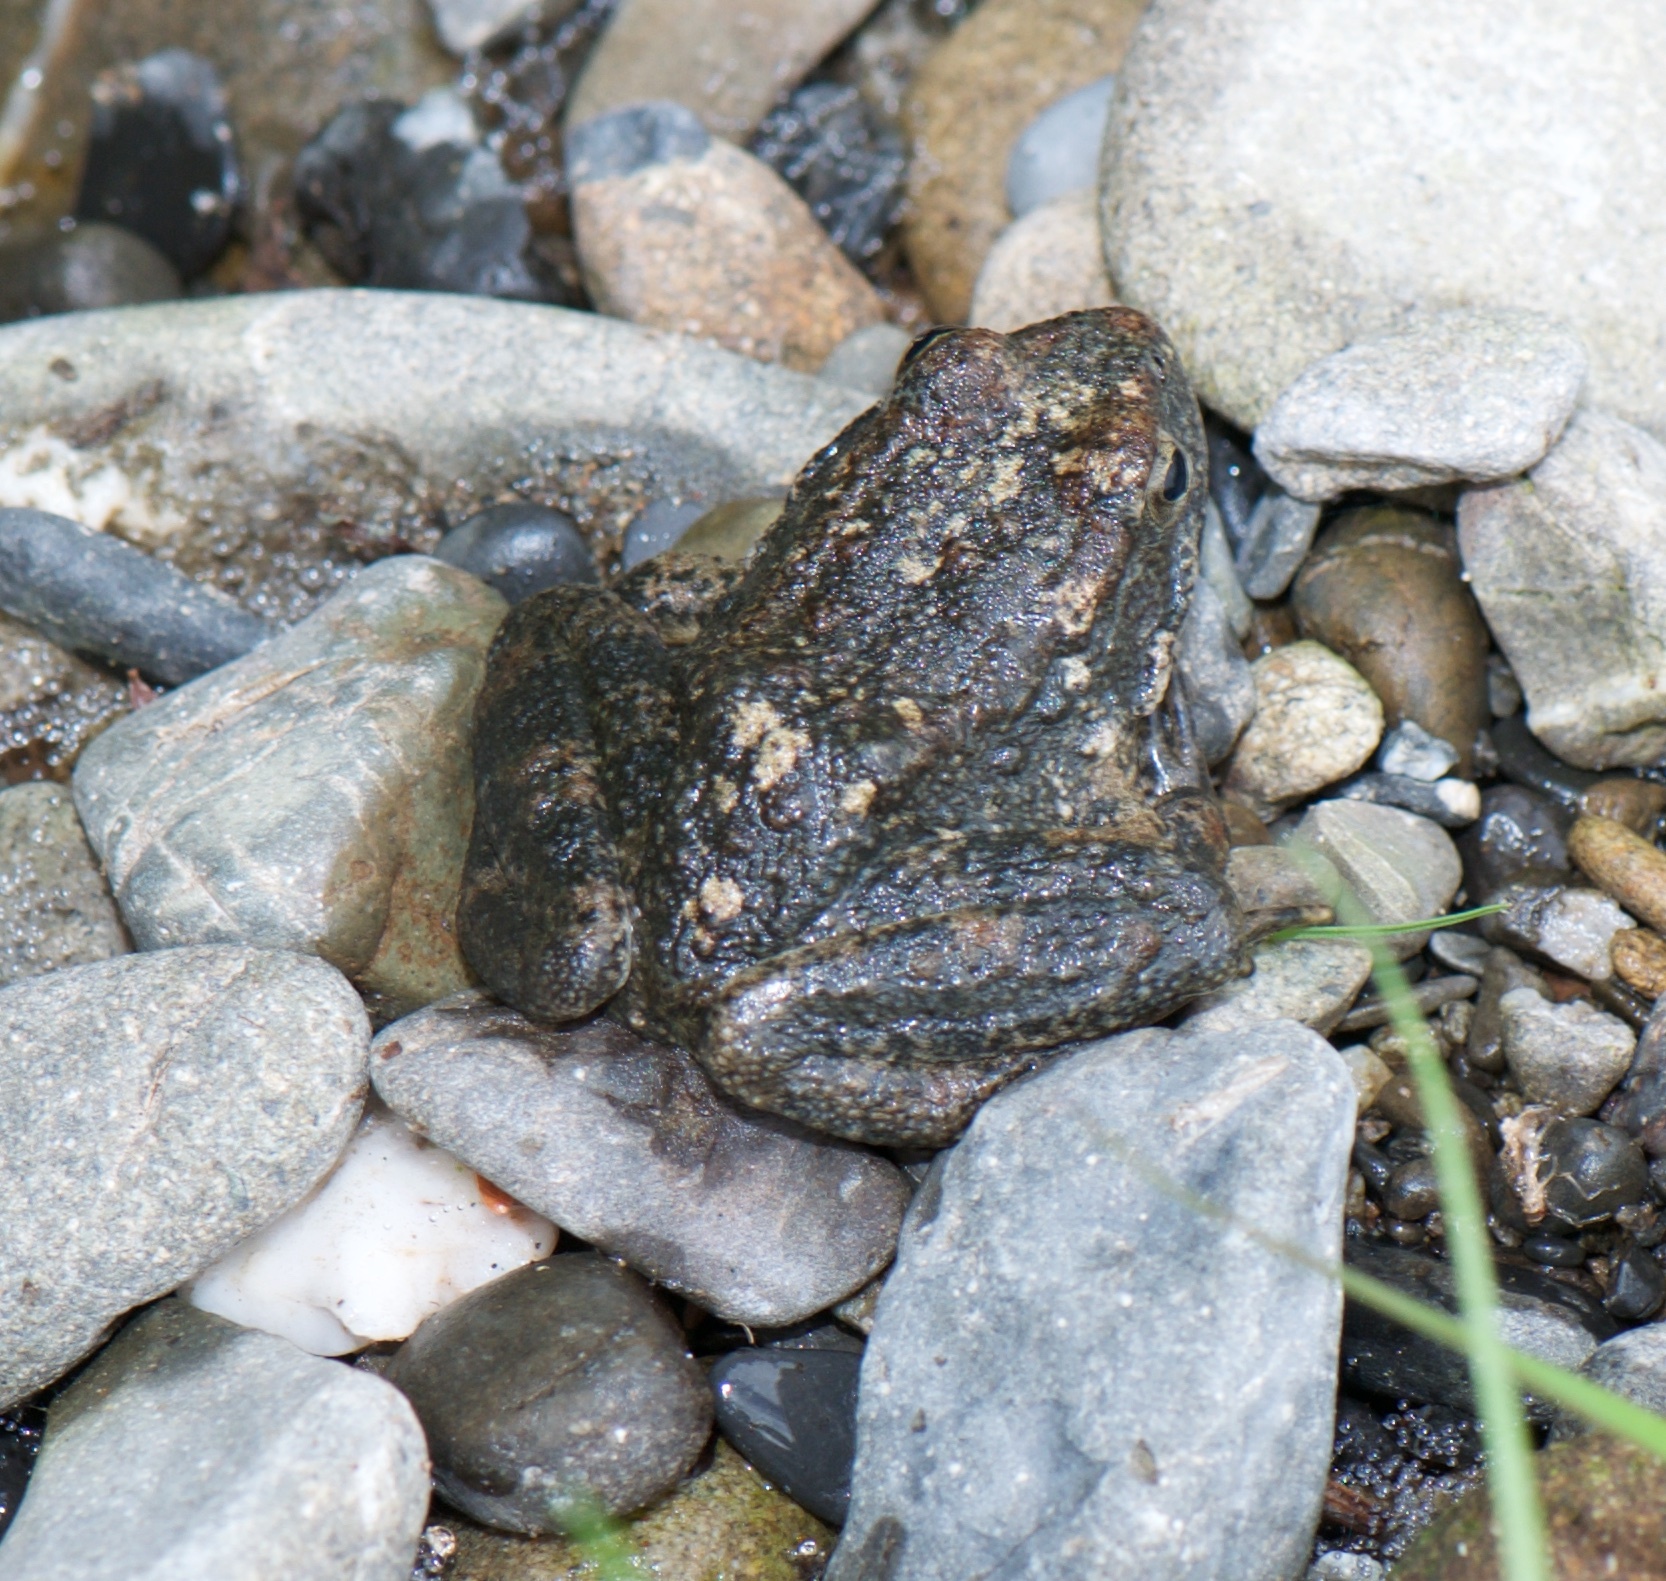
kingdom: Animalia
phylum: Chordata
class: Amphibia
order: Anura
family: Ranidae
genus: Rana
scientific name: Rana boylii
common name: Foothill yellow-legged frog
